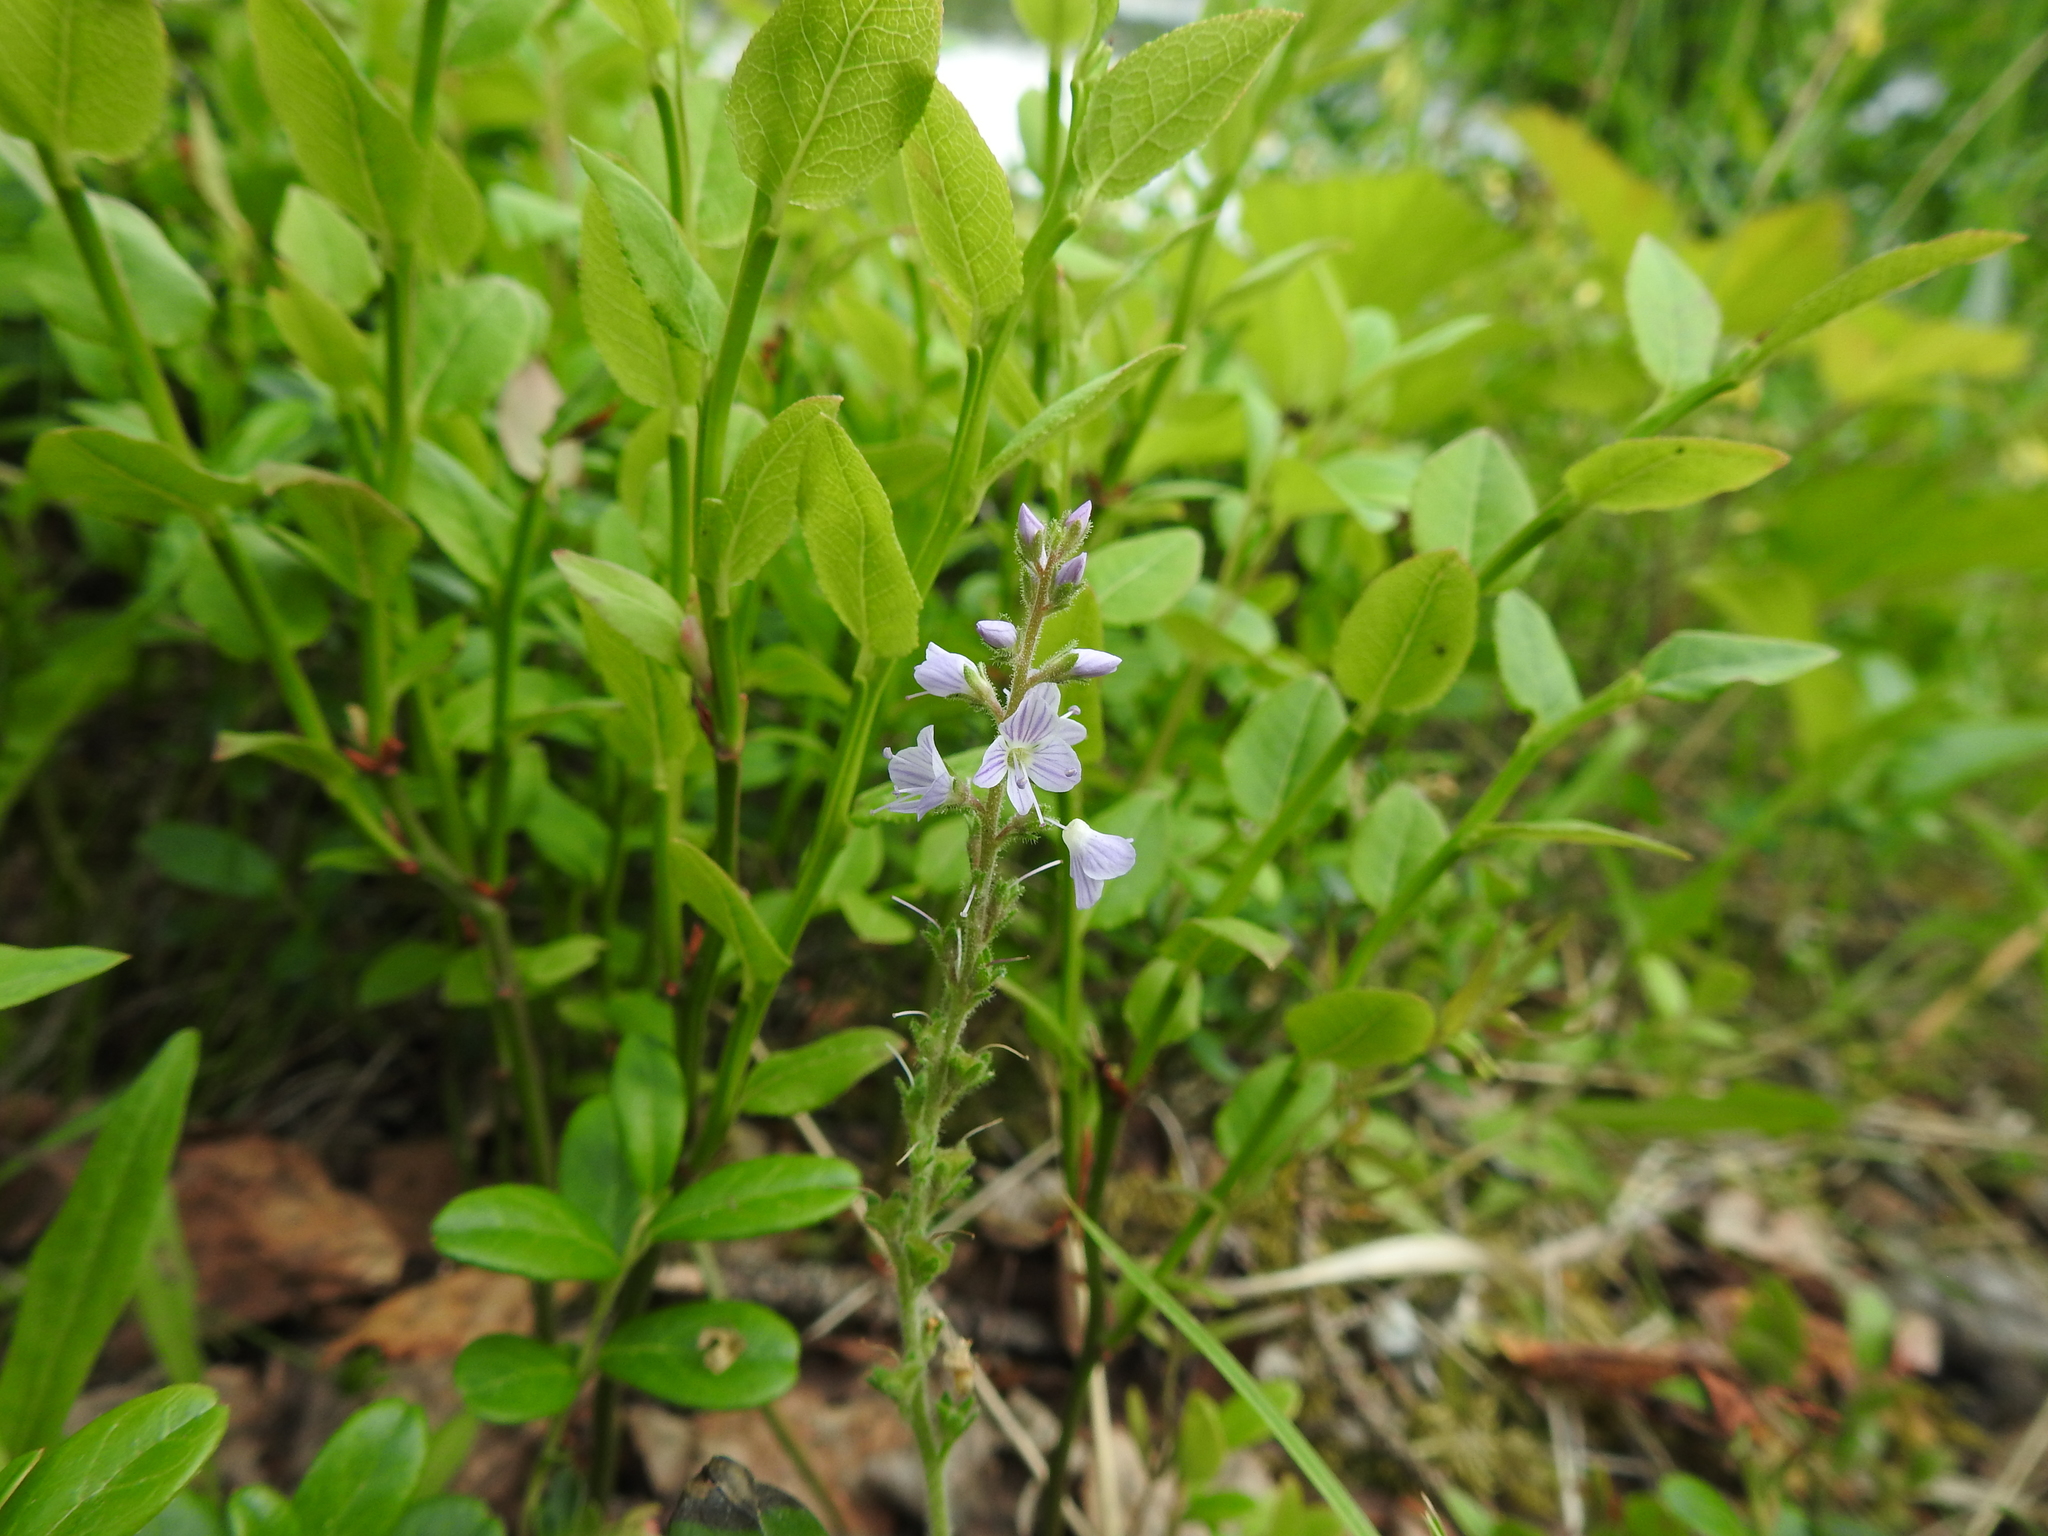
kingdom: Plantae
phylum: Tracheophyta
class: Magnoliopsida
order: Lamiales
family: Plantaginaceae
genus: Veronica
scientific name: Veronica officinalis
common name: Common speedwell
